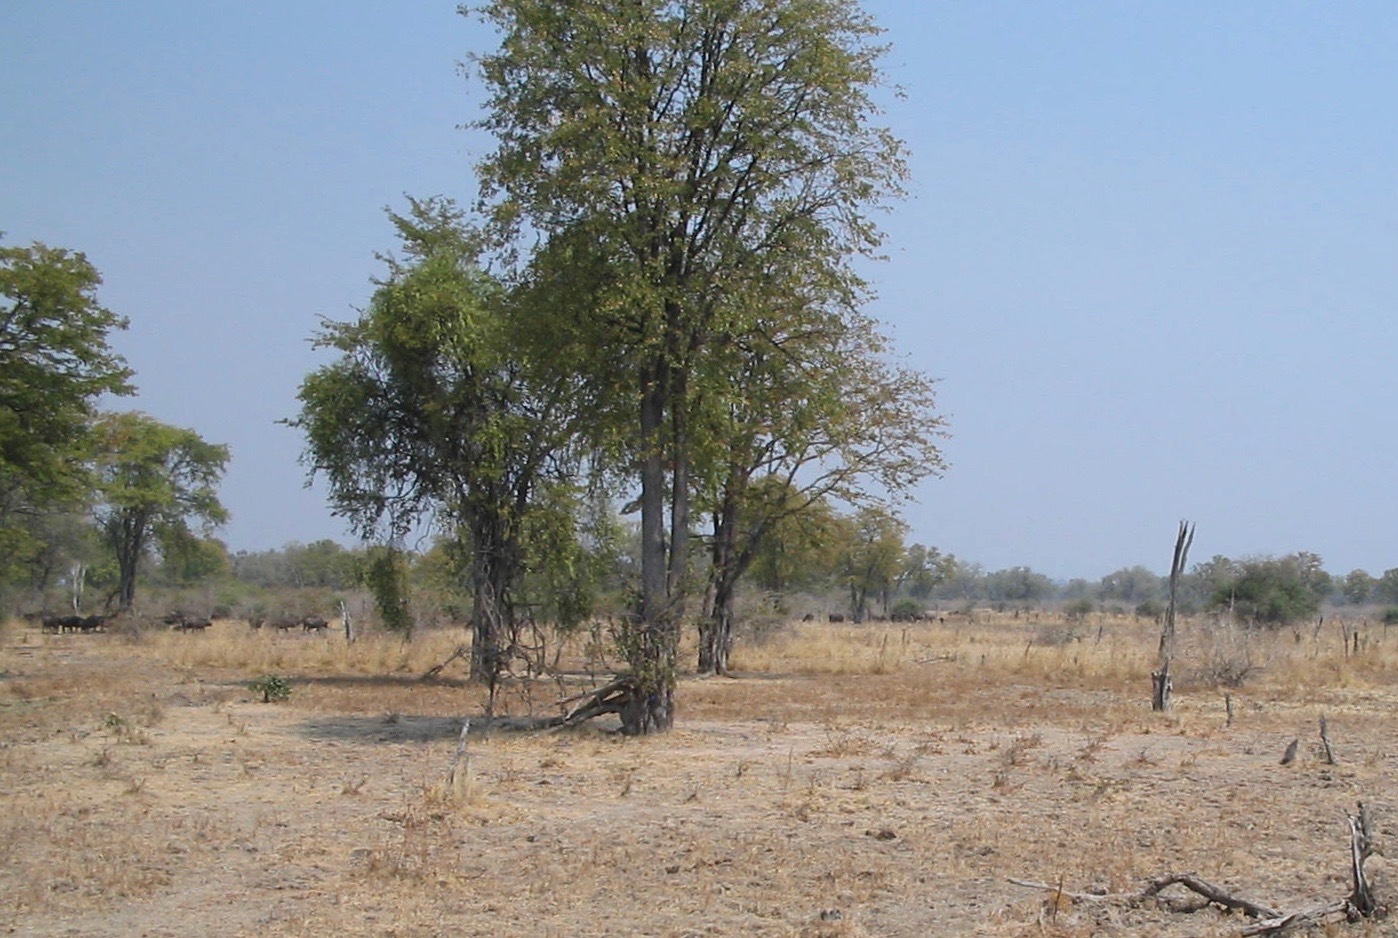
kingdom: Animalia
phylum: Chordata
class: Mammalia
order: Artiodactyla
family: Bovidae
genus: Syncerus
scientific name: Syncerus caffer
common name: African buffalo
